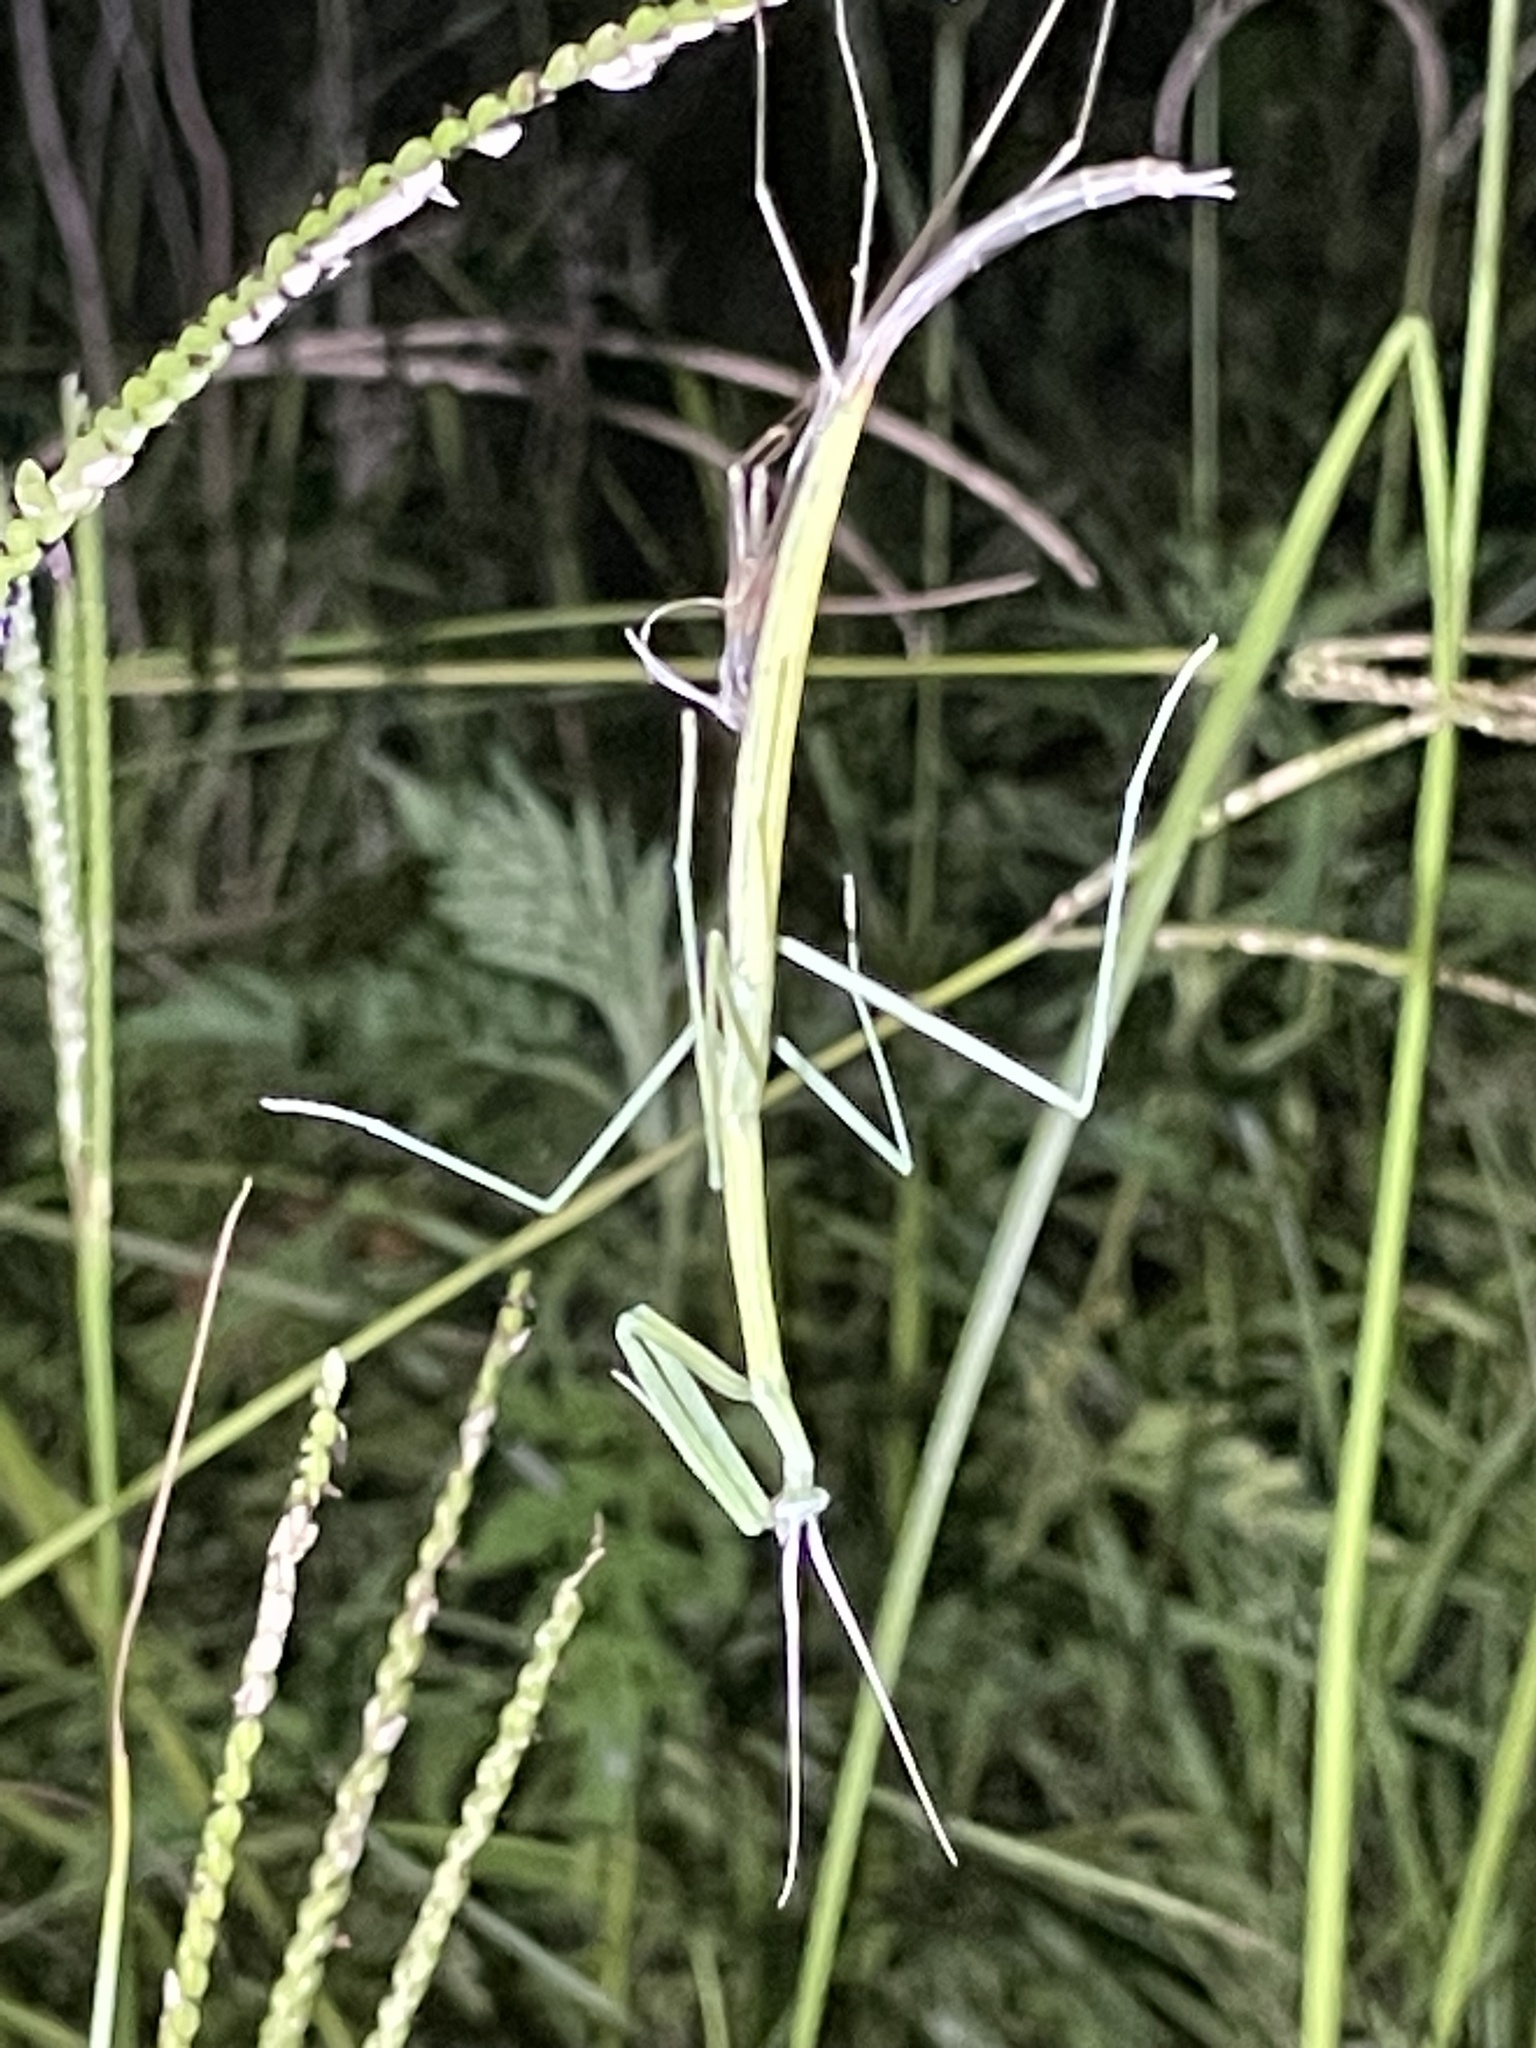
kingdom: Animalia
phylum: Arthropoda
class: Insecta
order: Mantodea
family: Coptopterygidae
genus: Brunneria
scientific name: Brunneria borealis
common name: Mantis
